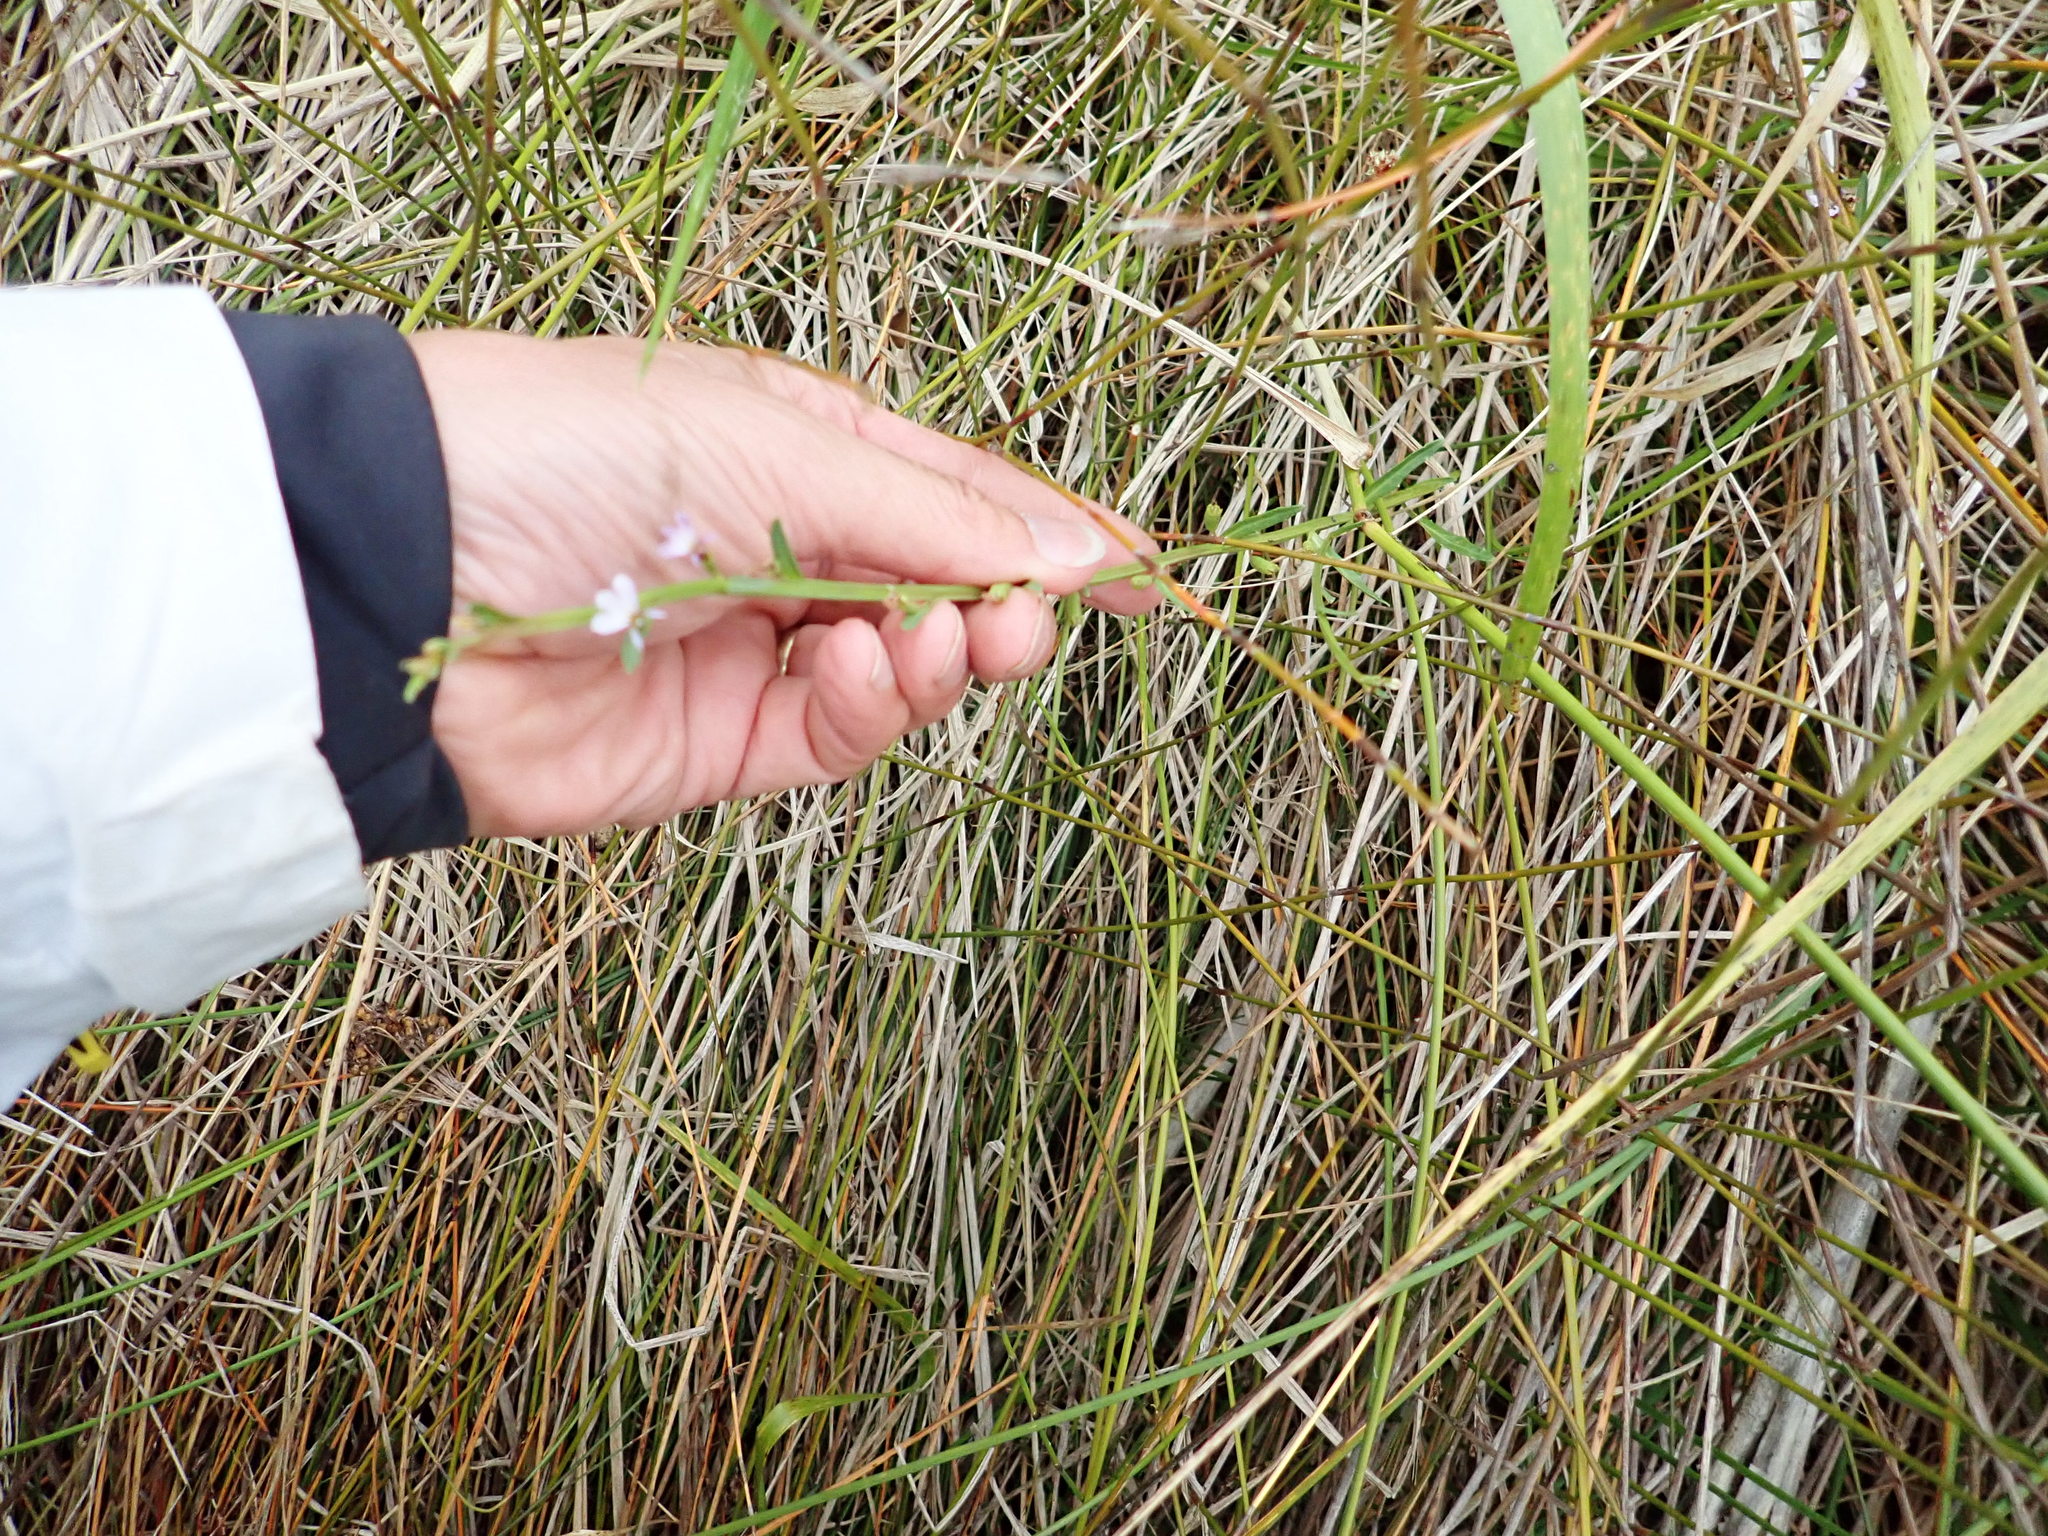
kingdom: Plantae
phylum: Tracheophyta
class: Magnoliopsida
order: Asterales
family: Campanulaceae
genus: Lobelia
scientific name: Lobelia anceps
